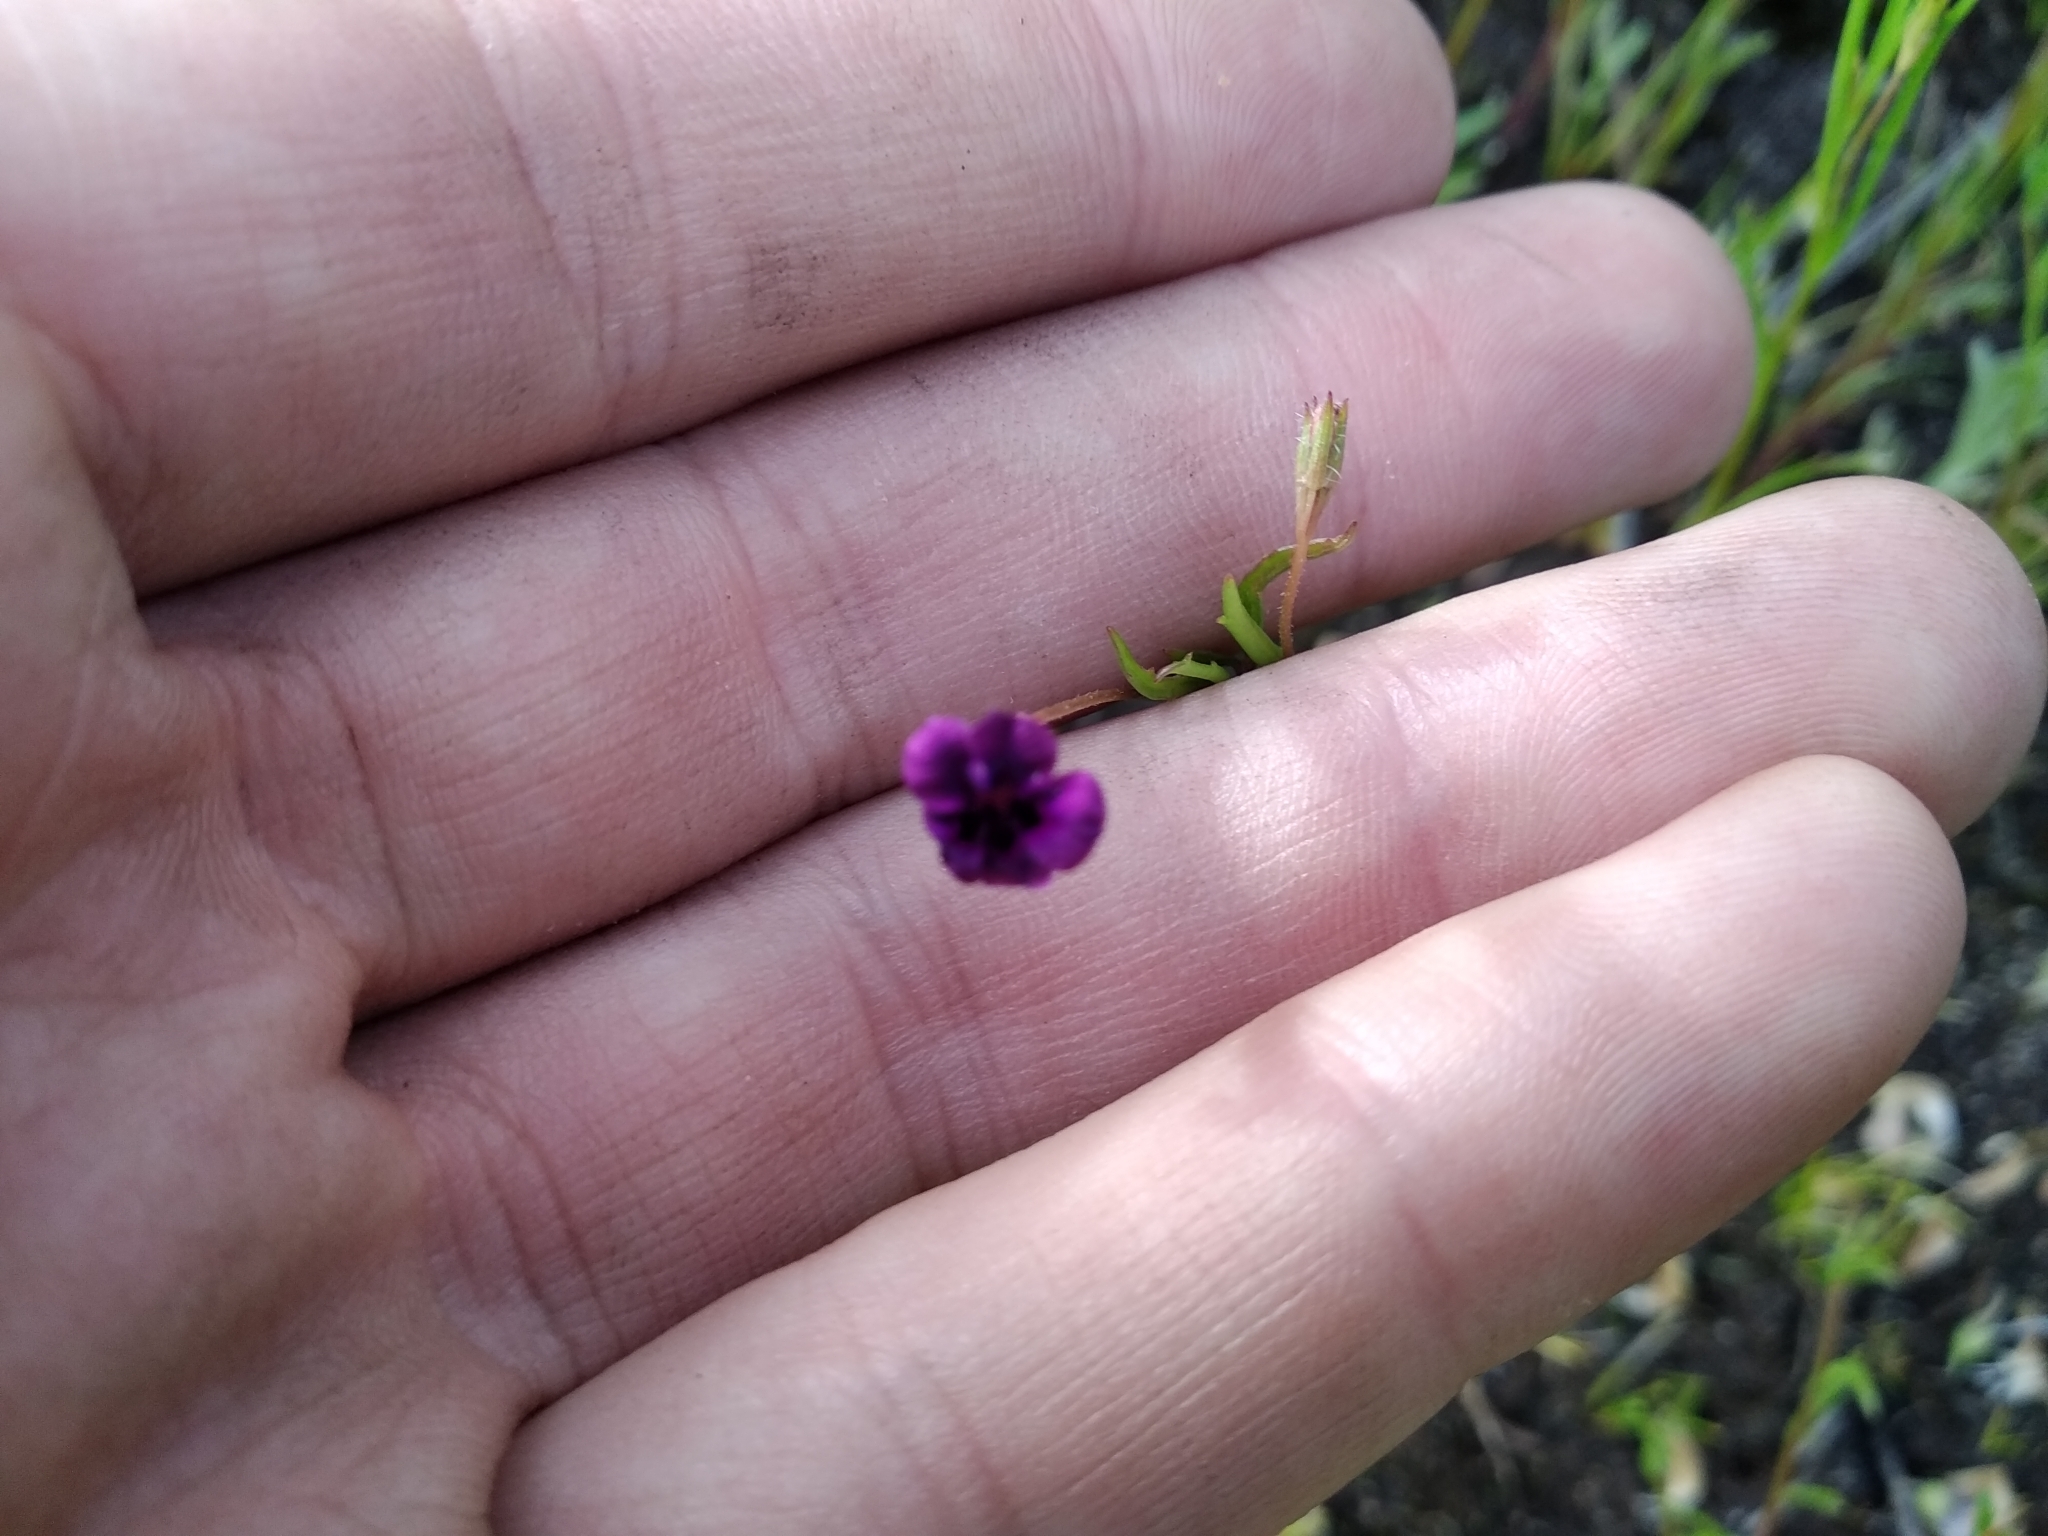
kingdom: Plantae
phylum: Tracheophyta
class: Magnoliopsida
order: Asterales
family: Campanulaceae
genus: Monopsis
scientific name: Monopsis debilis
